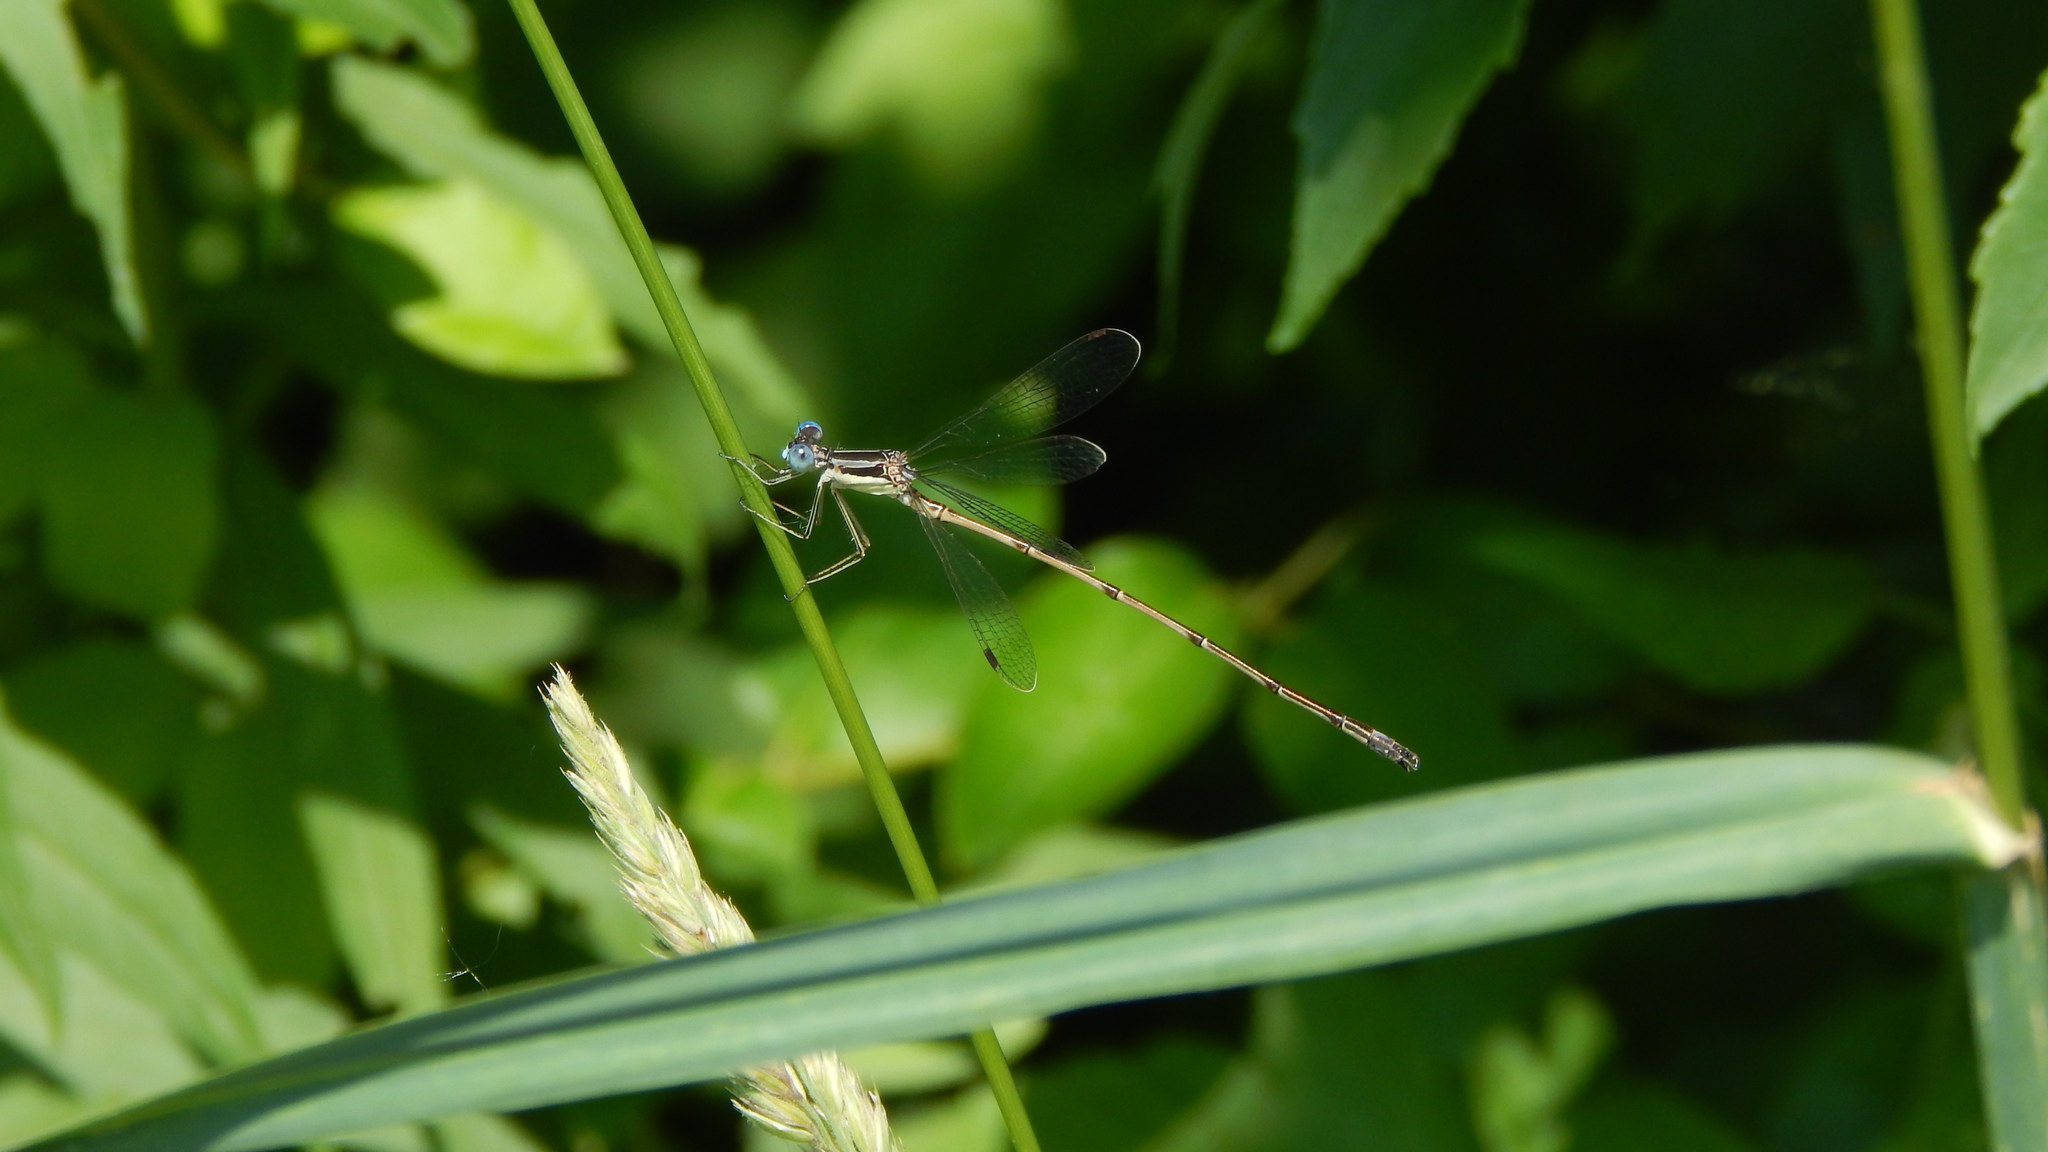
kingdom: Animalia
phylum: Arthropoda
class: Insecta
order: Odonata
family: Lestidae
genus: Lestes
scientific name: Lestes rectangularis
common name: Slender spreadwing
